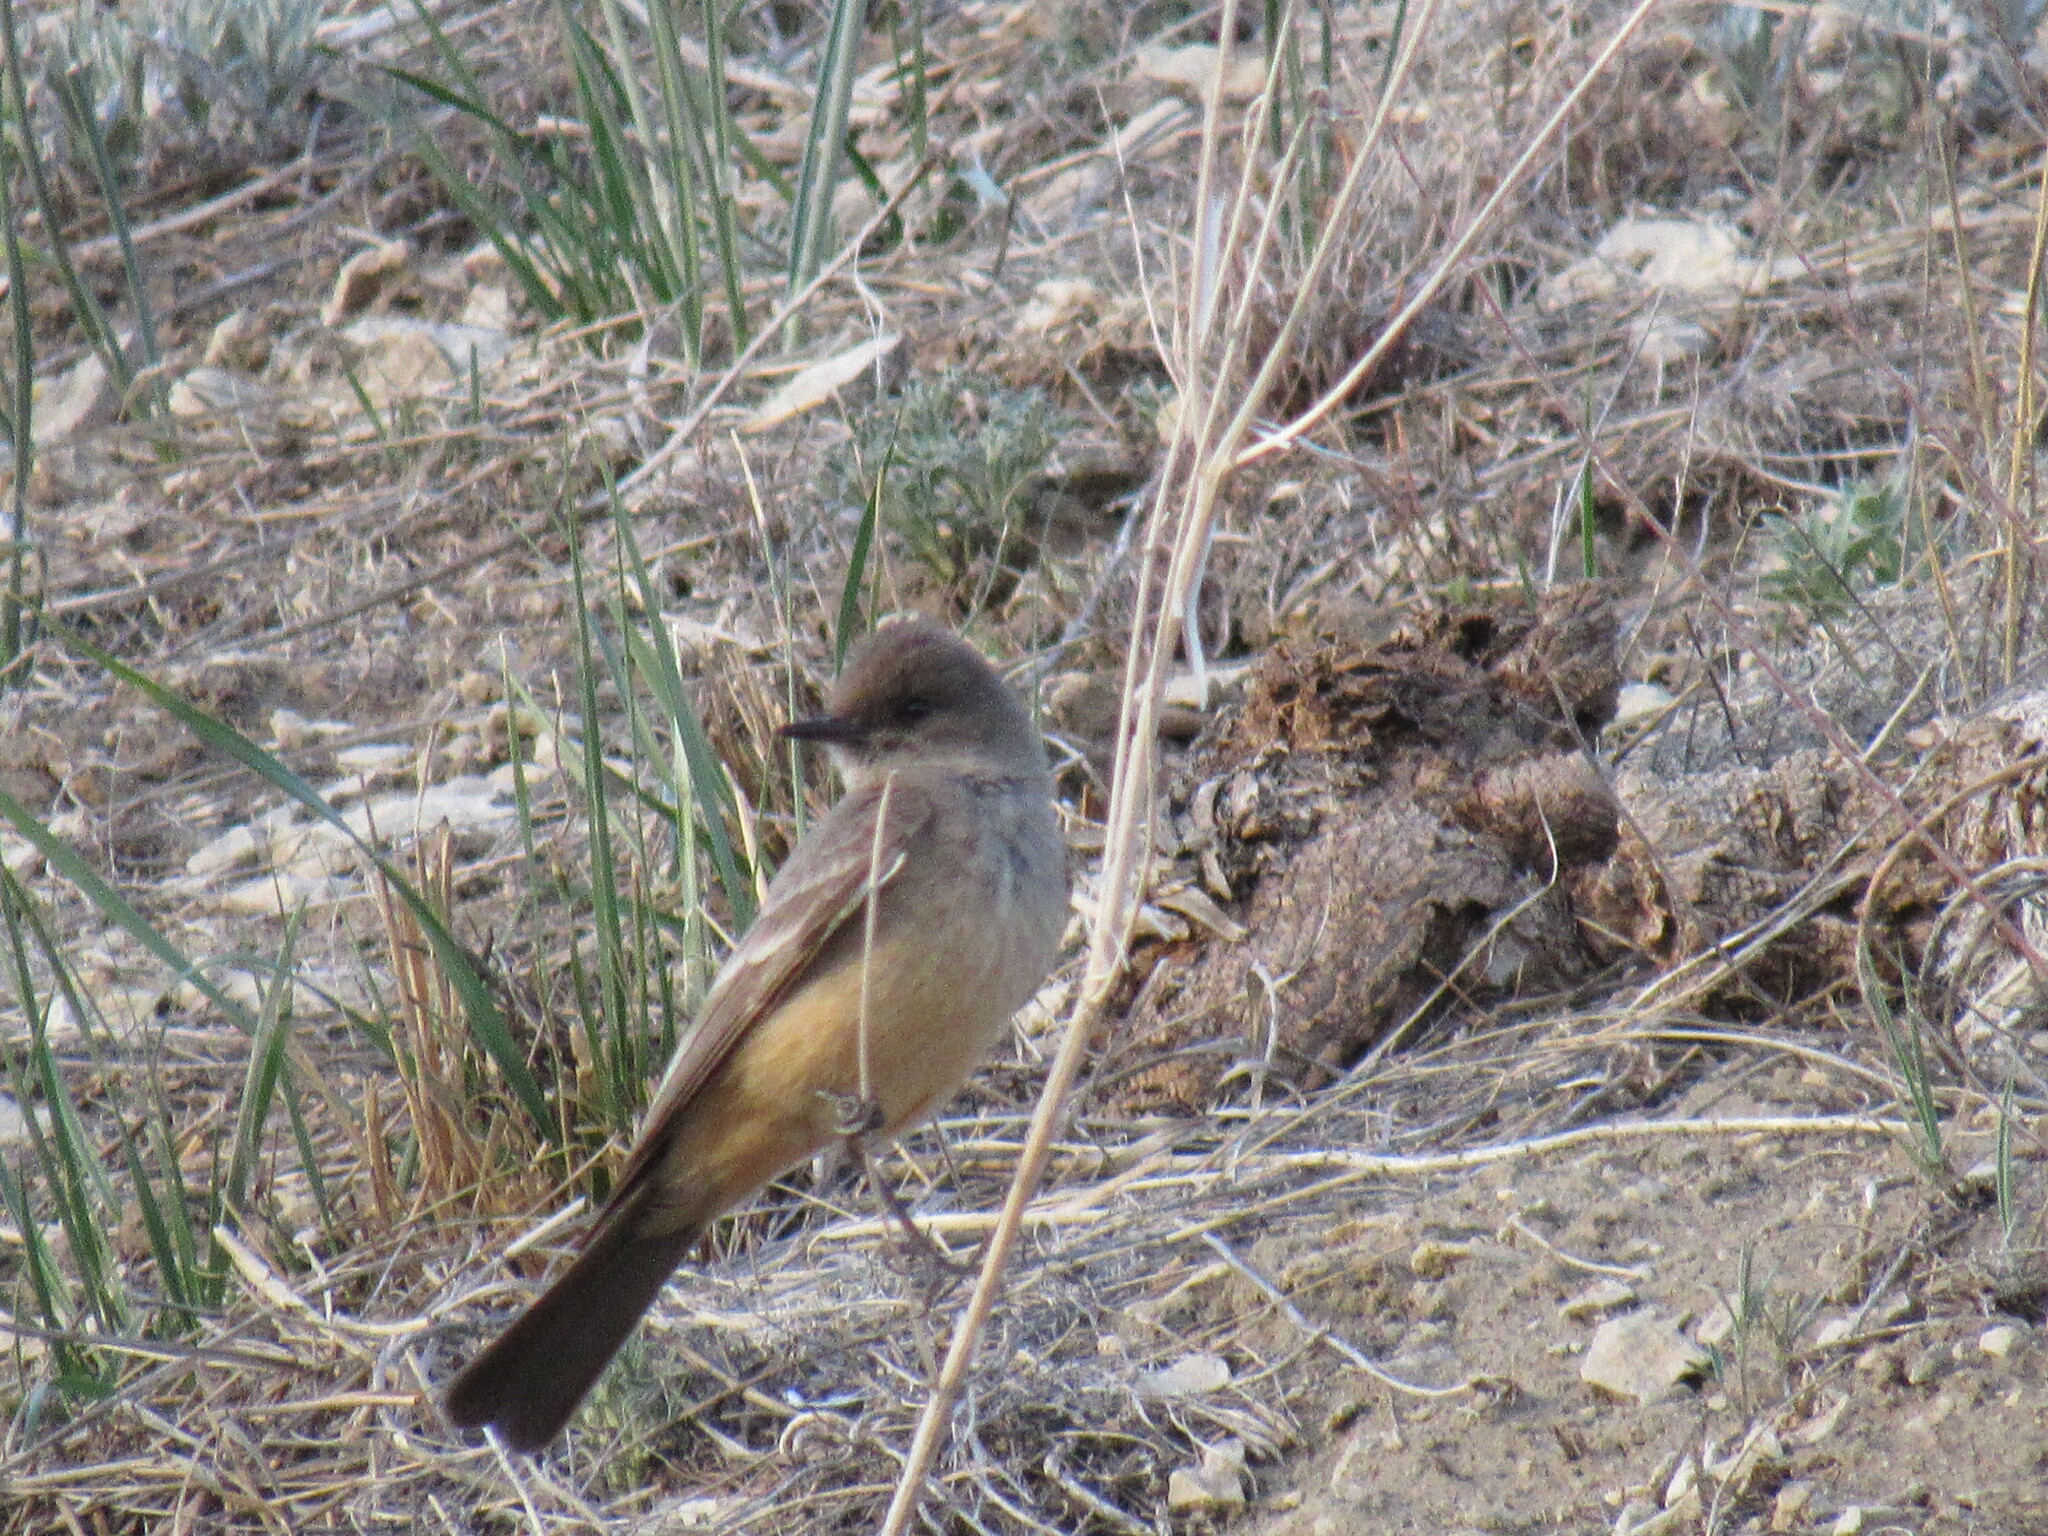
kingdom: Animalia
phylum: Chordata
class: Aves
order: Passeriformes
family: Tyrannidae
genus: Sayornis
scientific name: Sayornis saya
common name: Say's phoebe
